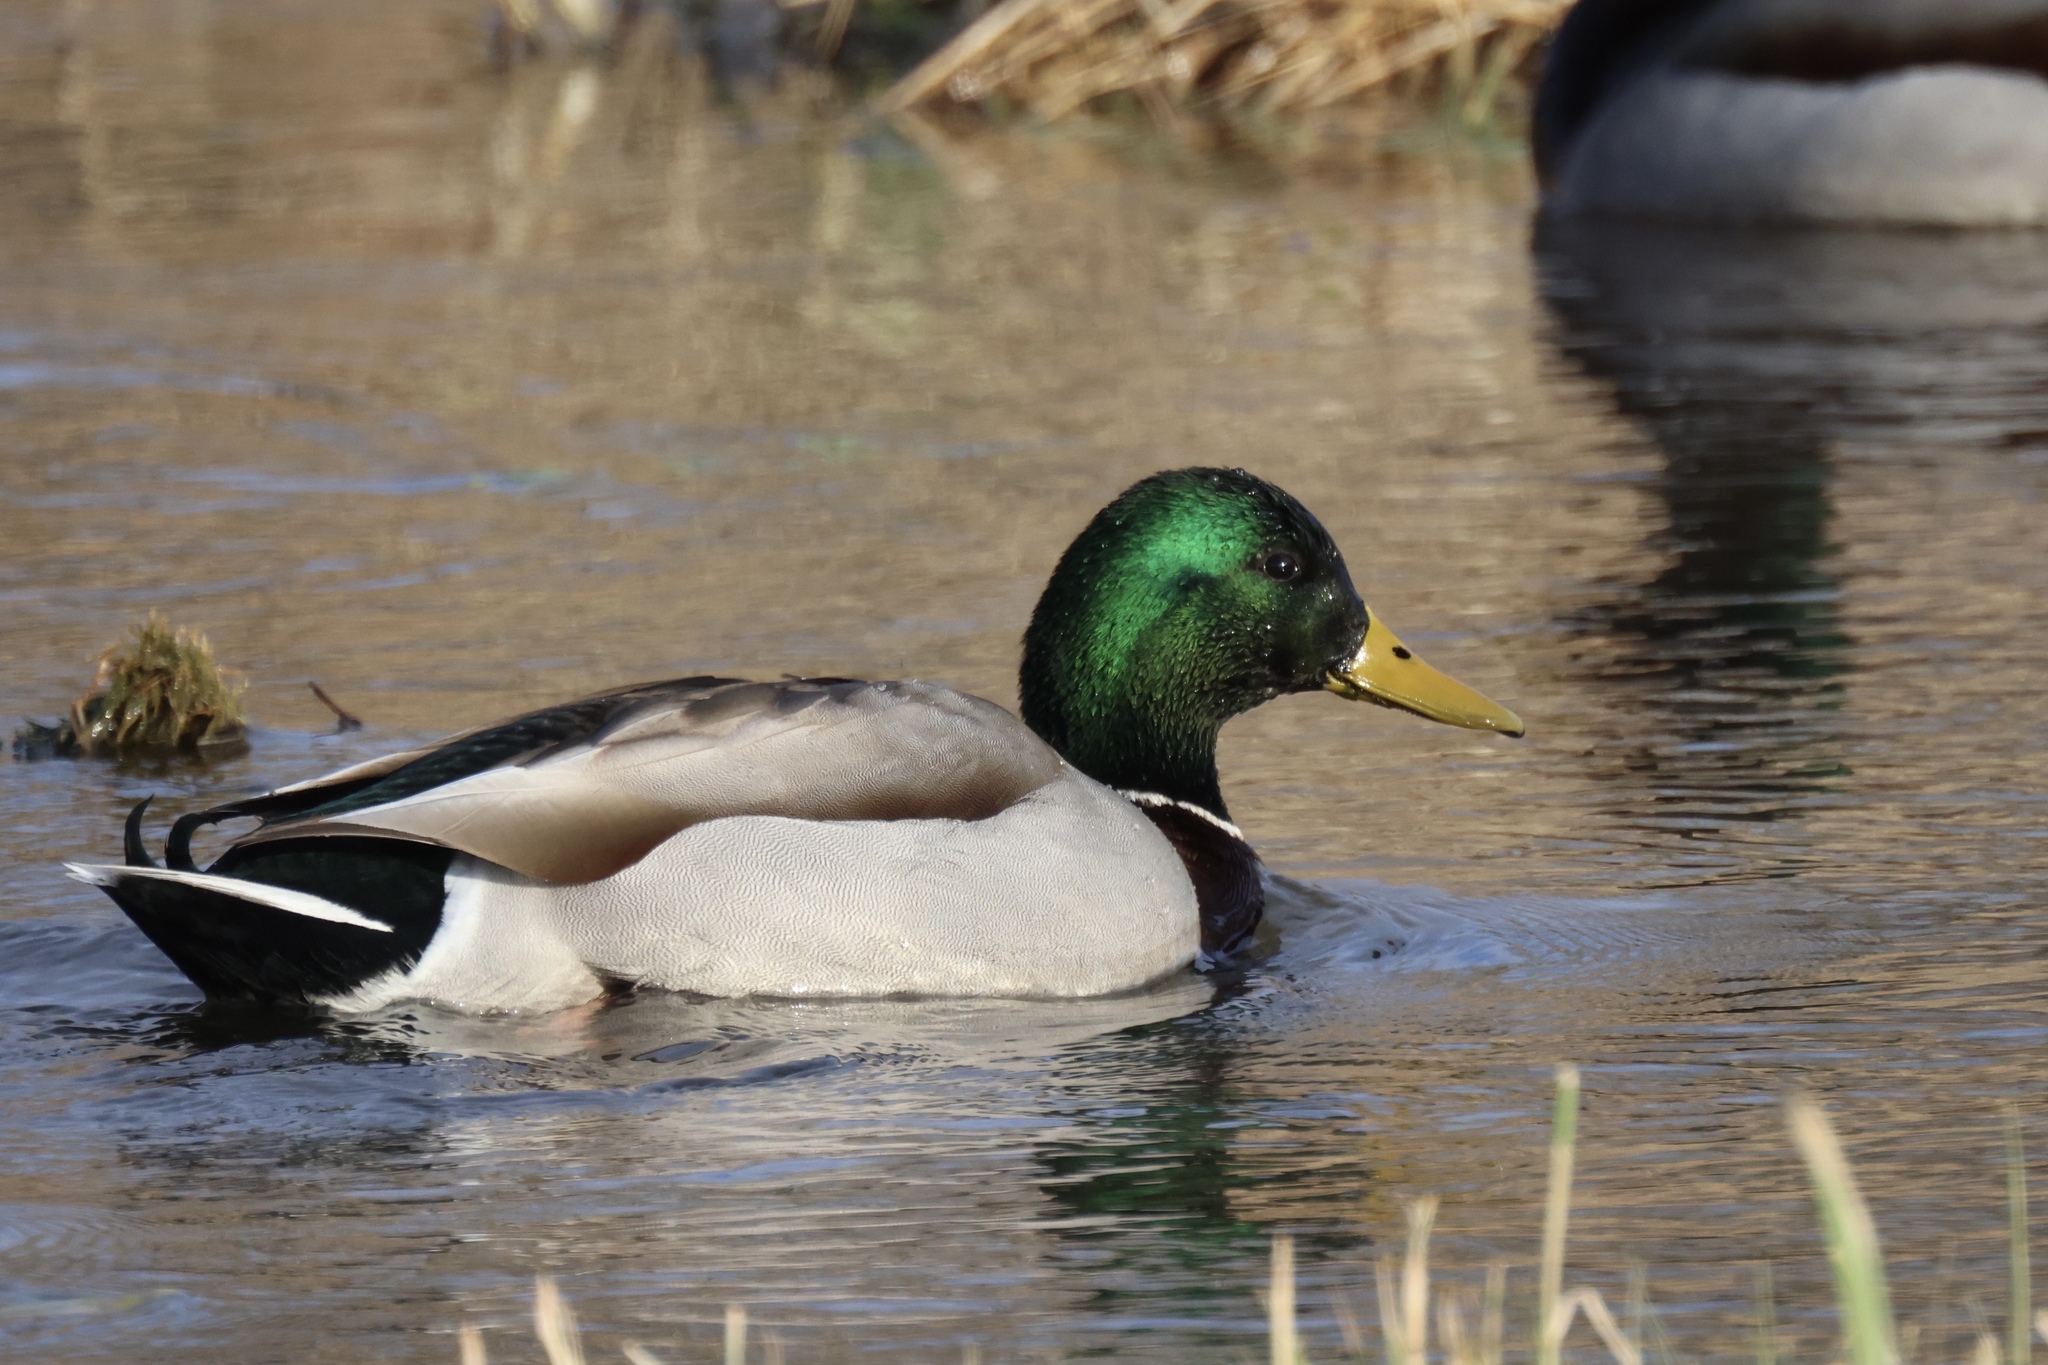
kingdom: Animalia
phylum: Chordata
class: Aves
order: Anseriformes
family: Anatidae
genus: Anas
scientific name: Anas platyrhynchos
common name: Mallard
